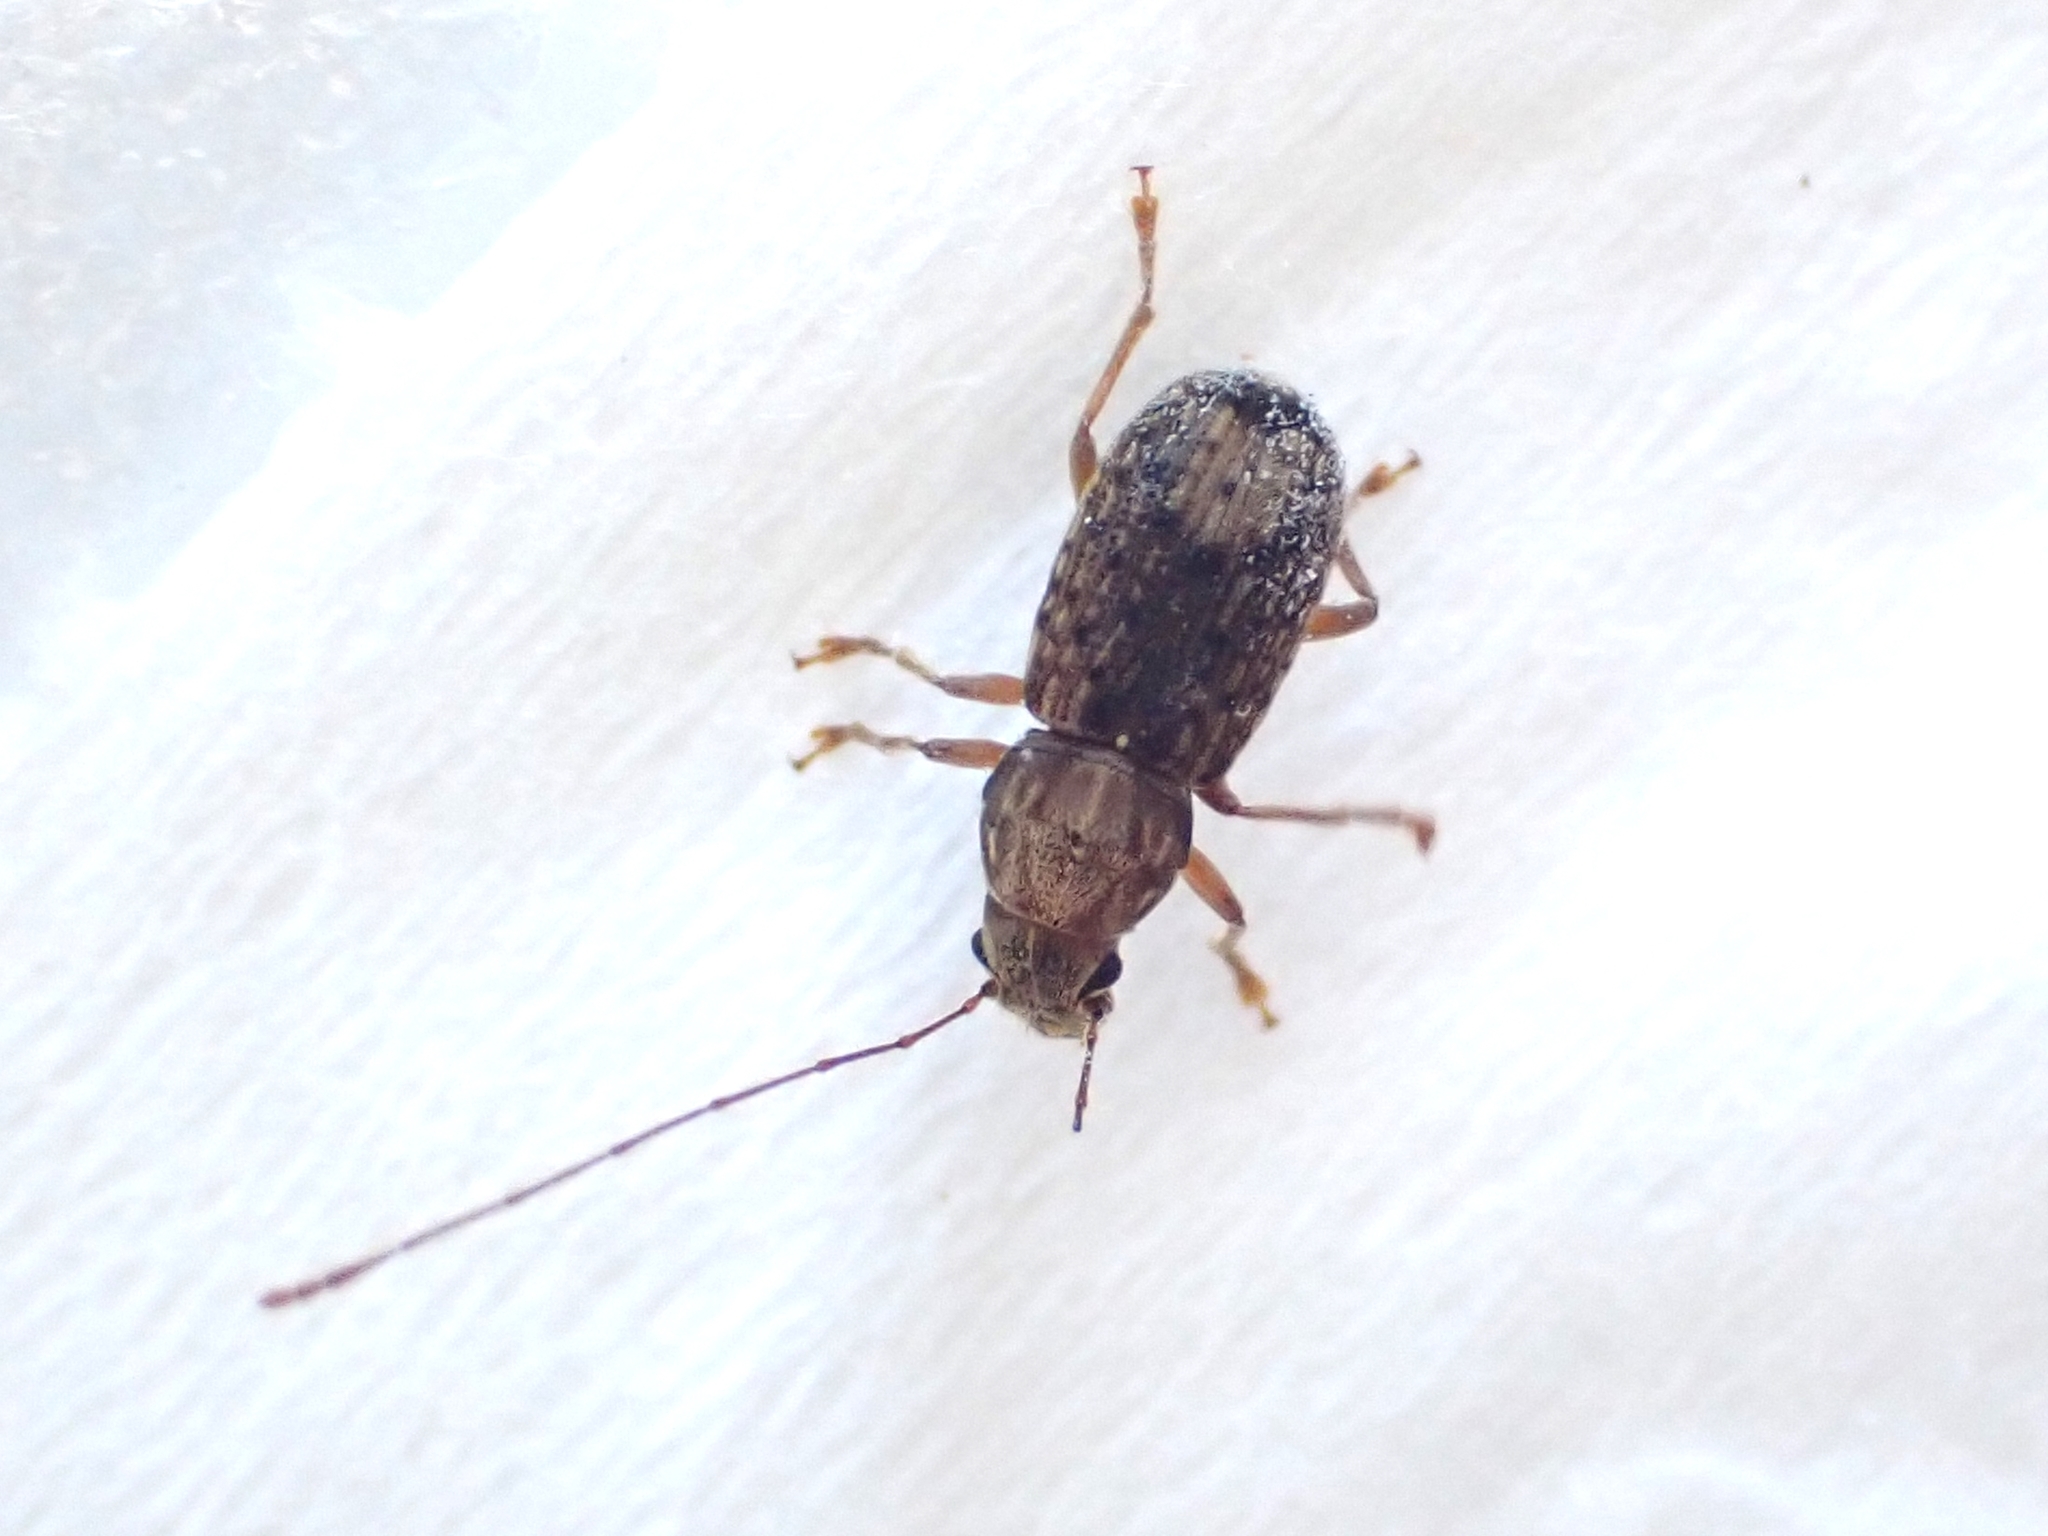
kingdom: Animalia
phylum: Arthropoda
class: Insecta
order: Coleoptera
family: Anthribidae
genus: Arecopais
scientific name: Arecopais spectabilis
